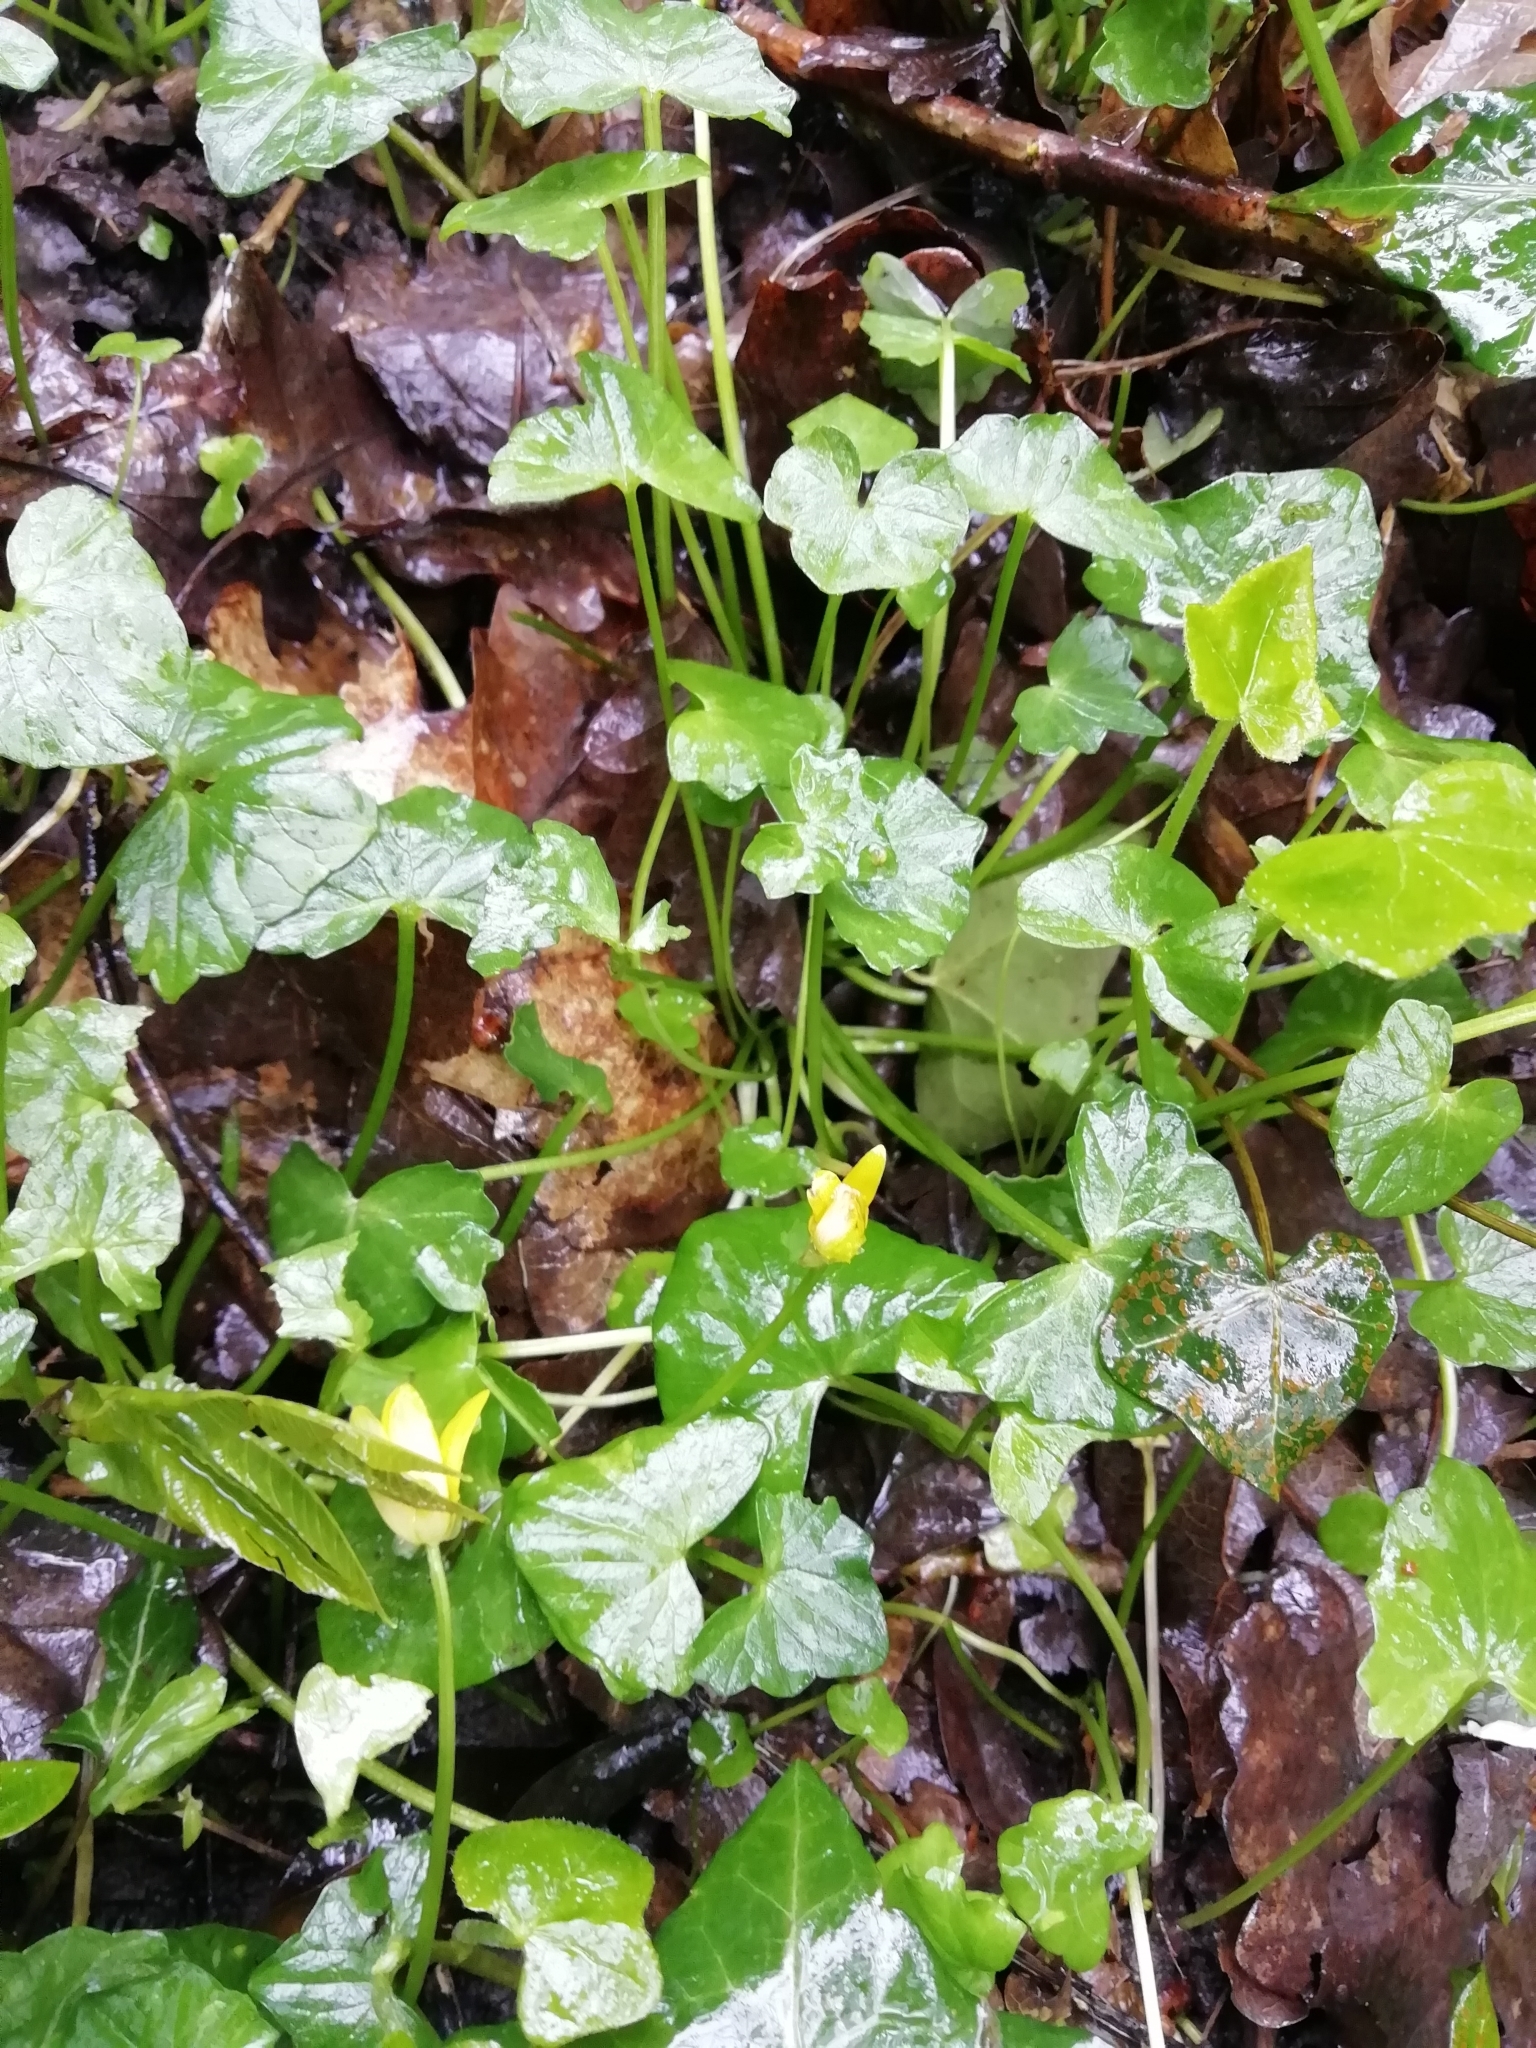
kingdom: Plantae
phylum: Tracheophyta
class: Magnoliopsida
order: Ranunculales
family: Ranunculaceae
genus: Ficaria
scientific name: Ficaria verna
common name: Lesser celandine
